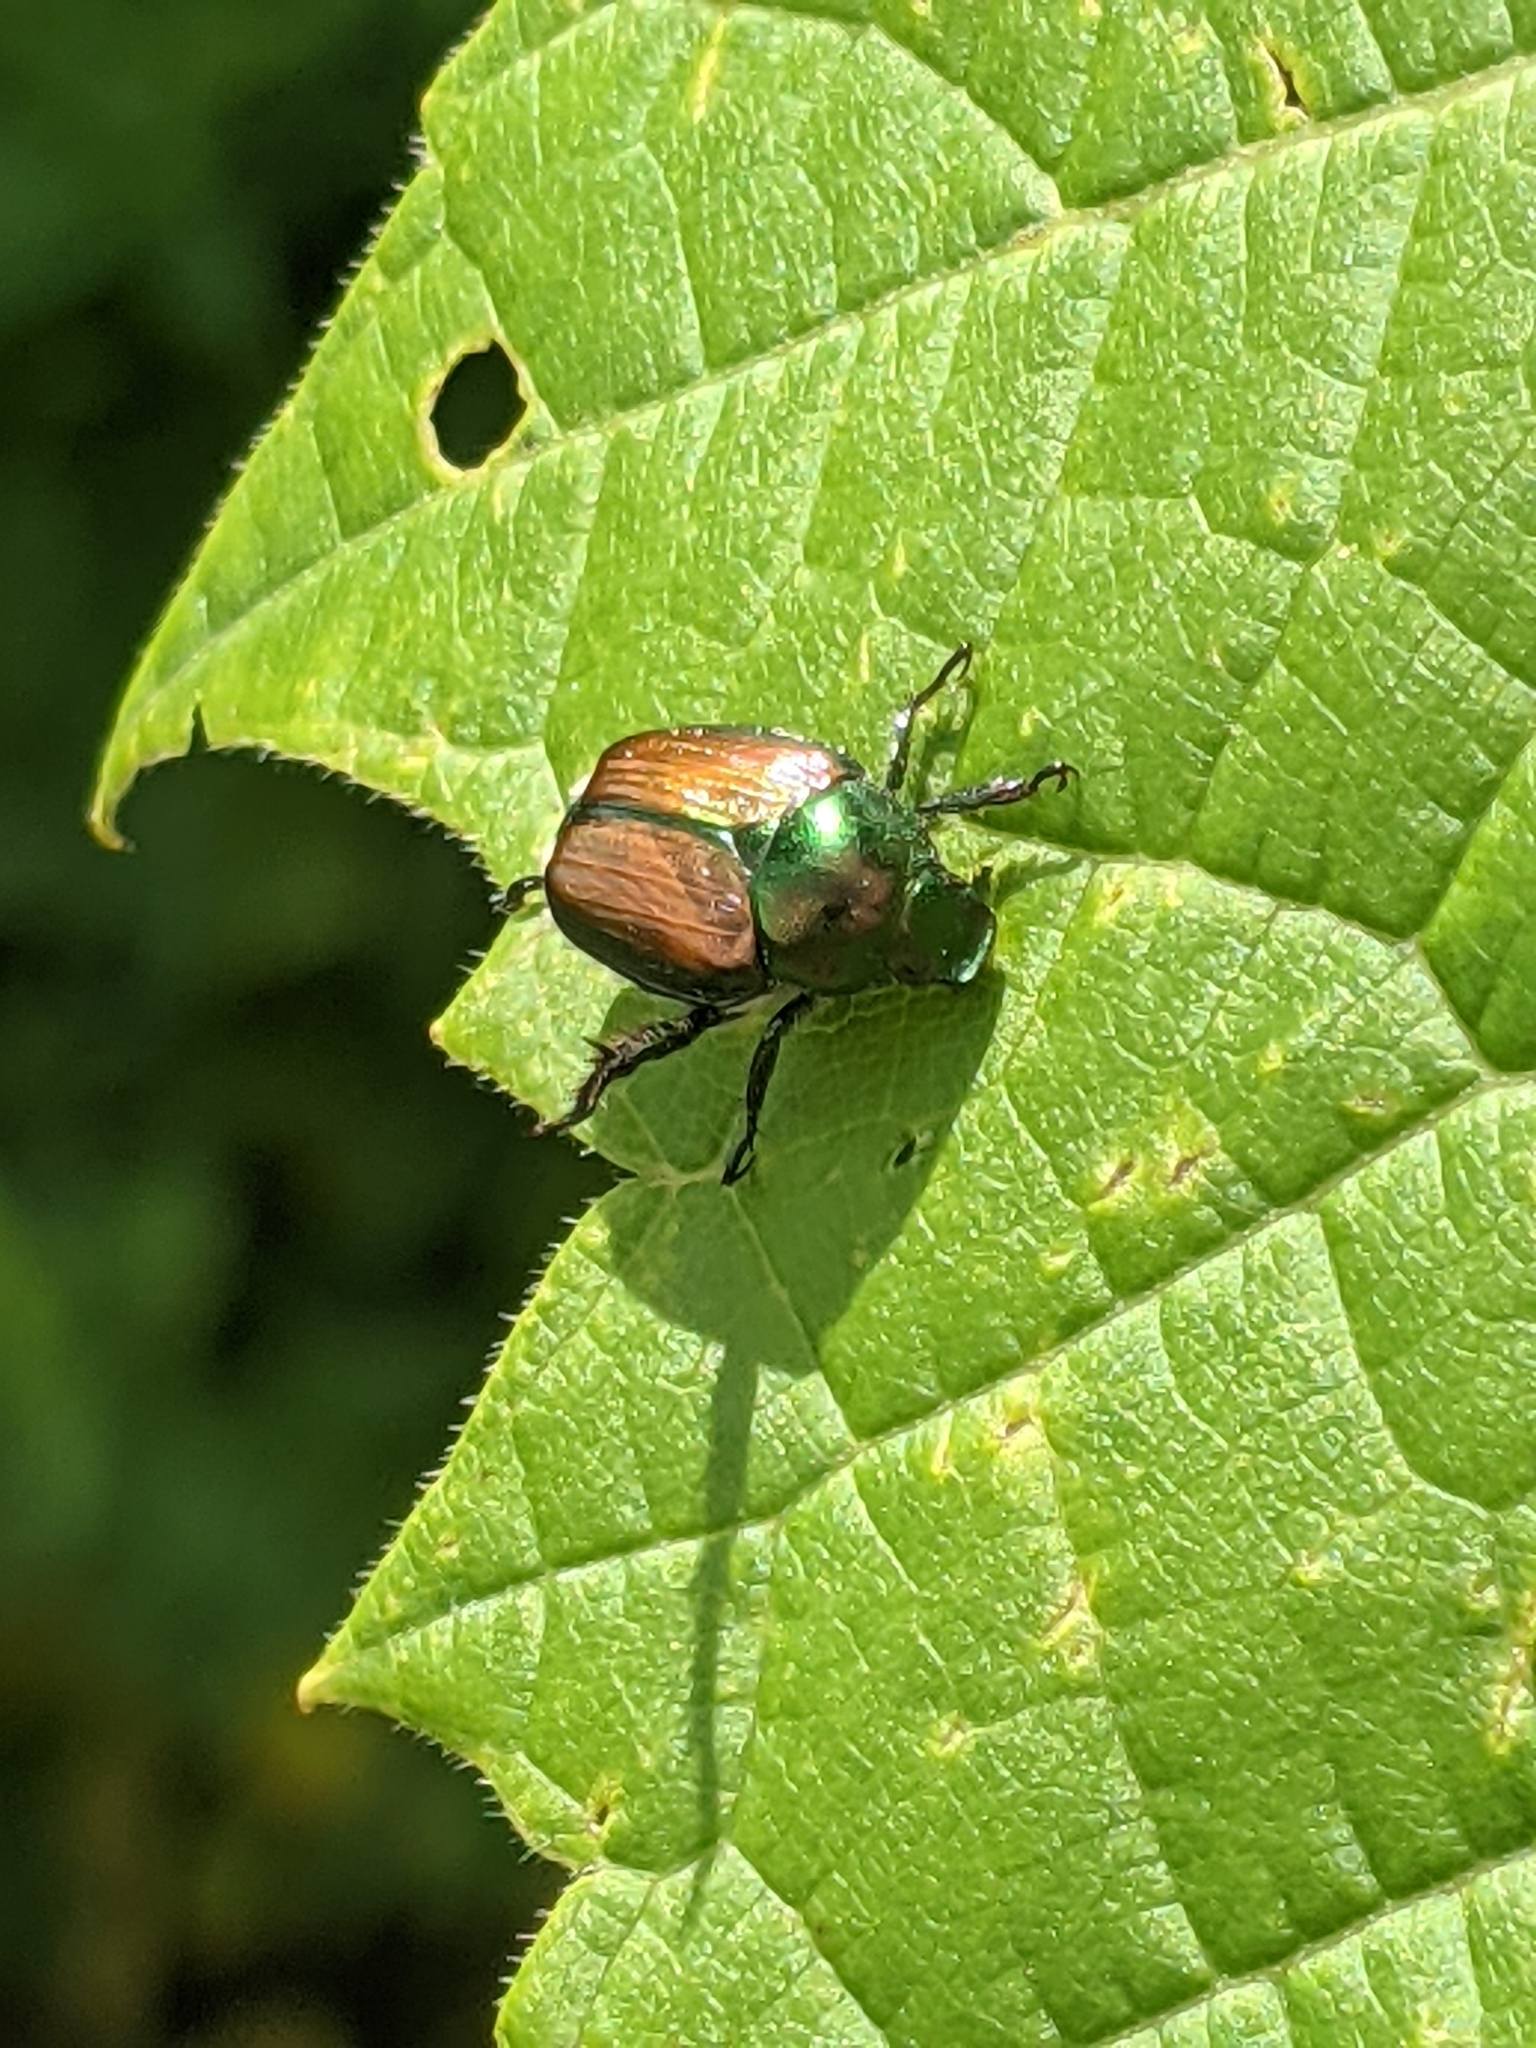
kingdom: Animalia
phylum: Arthropoda
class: Insecta
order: Coleoptera
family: Scarabaeidae
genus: Popillia
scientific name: Popillia japonica
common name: Japanese beetle
